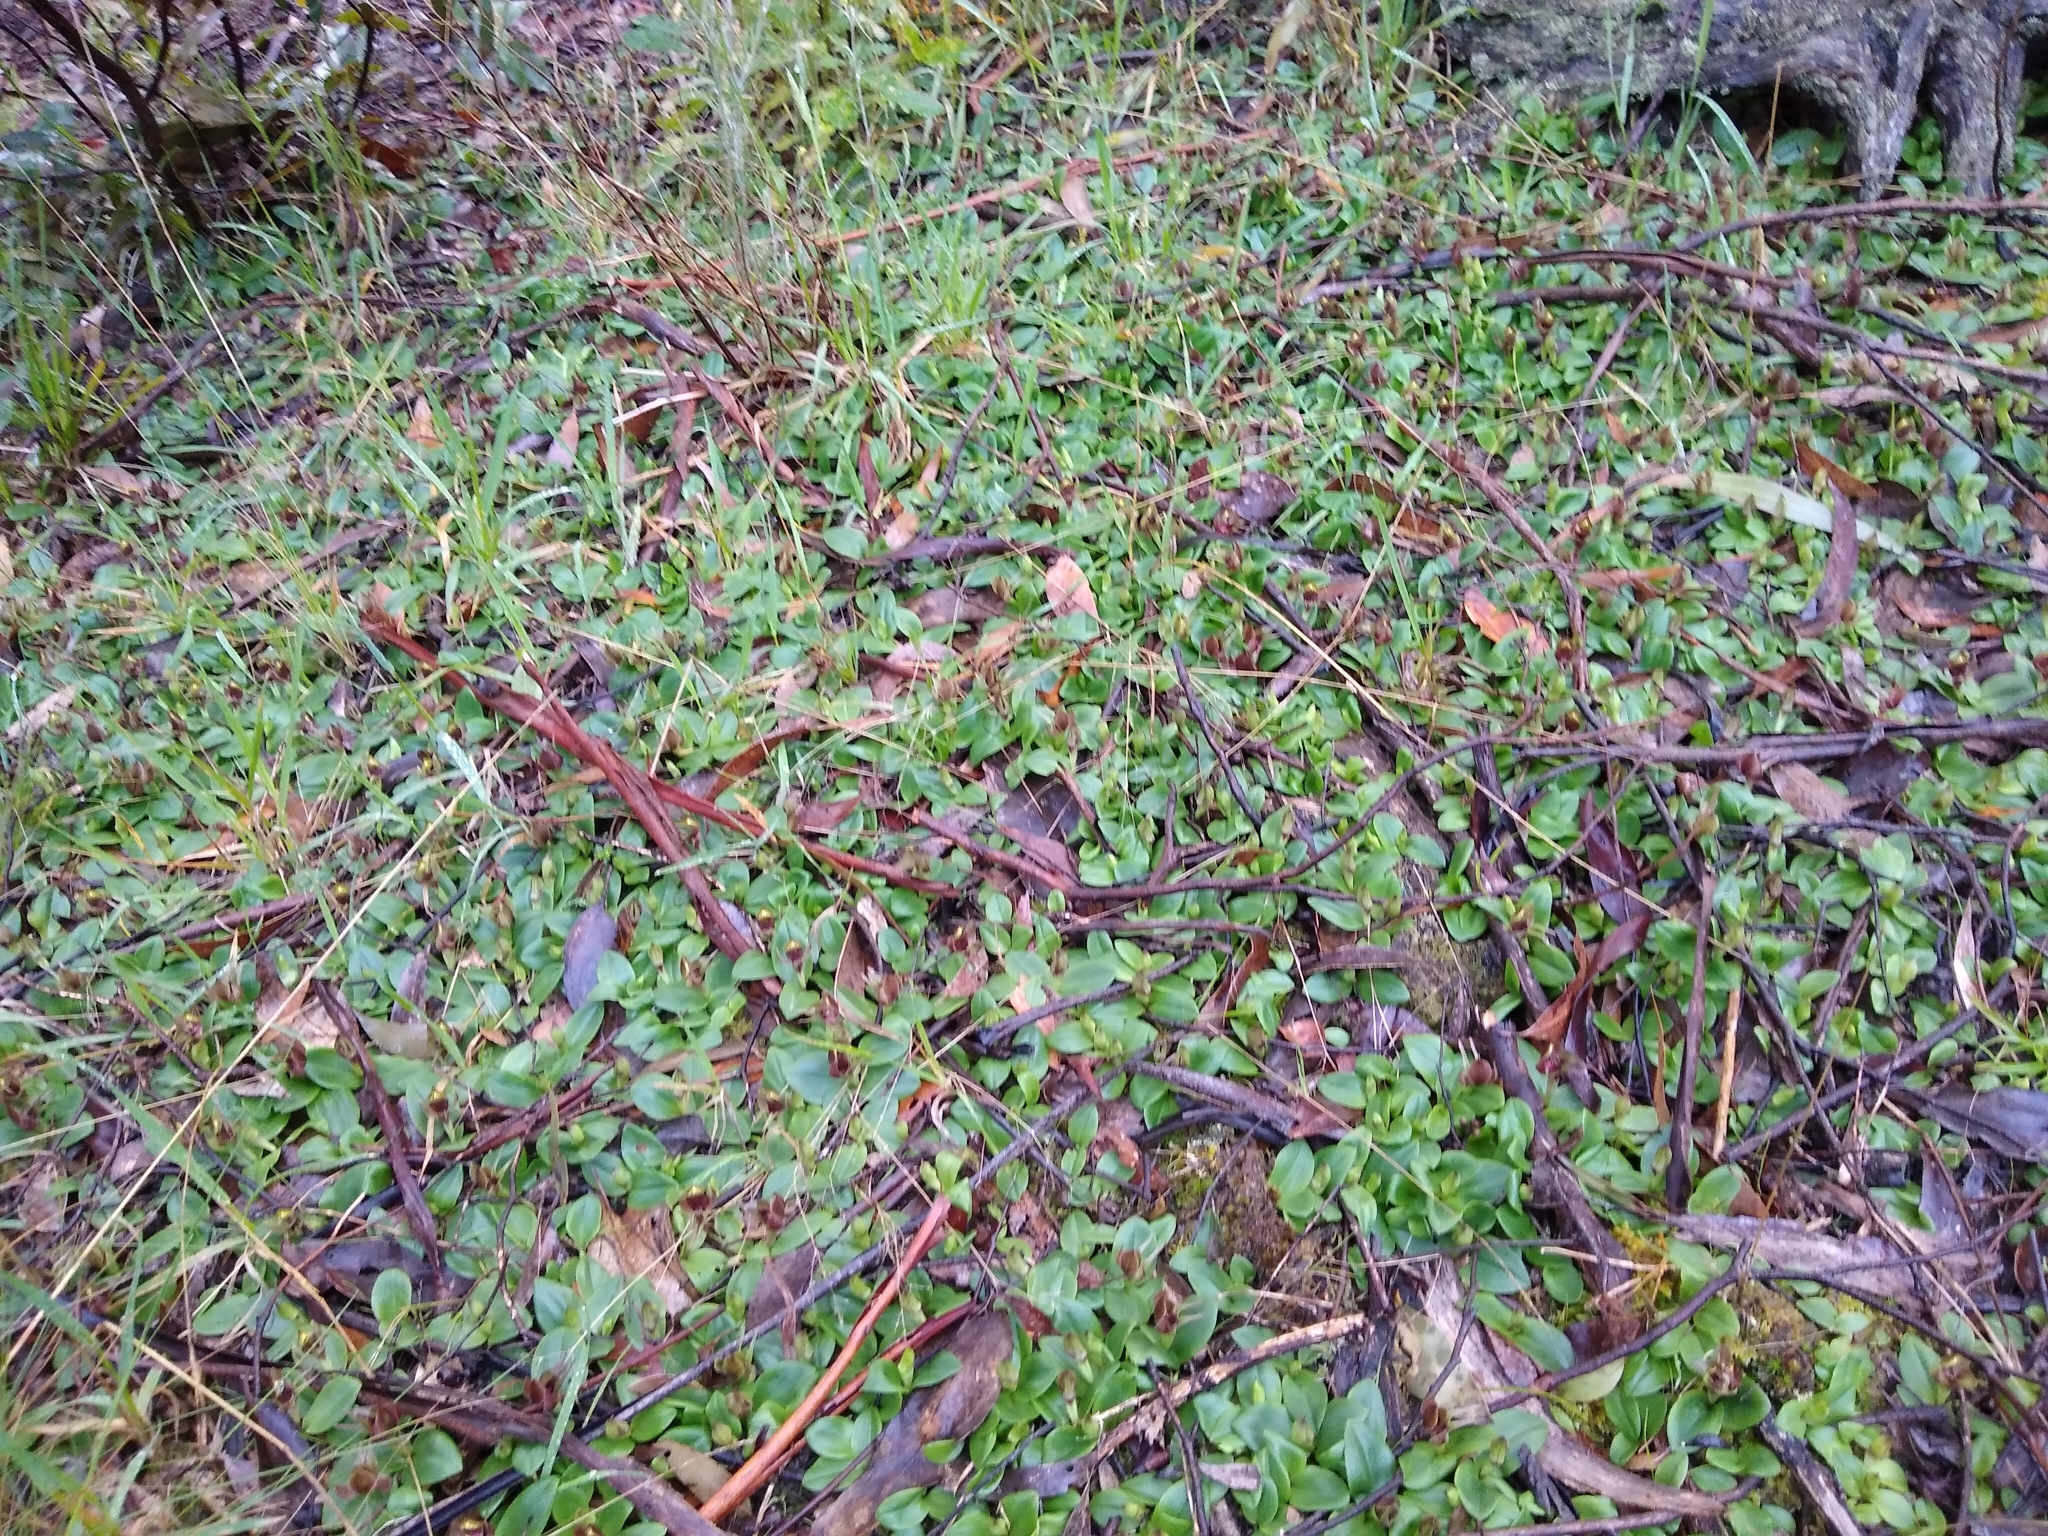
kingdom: Plantae
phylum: Tracheophyta
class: Liliopsida
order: Asparagales
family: Orchidaceae
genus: Chiloglottis
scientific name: Chiloglottis valida
